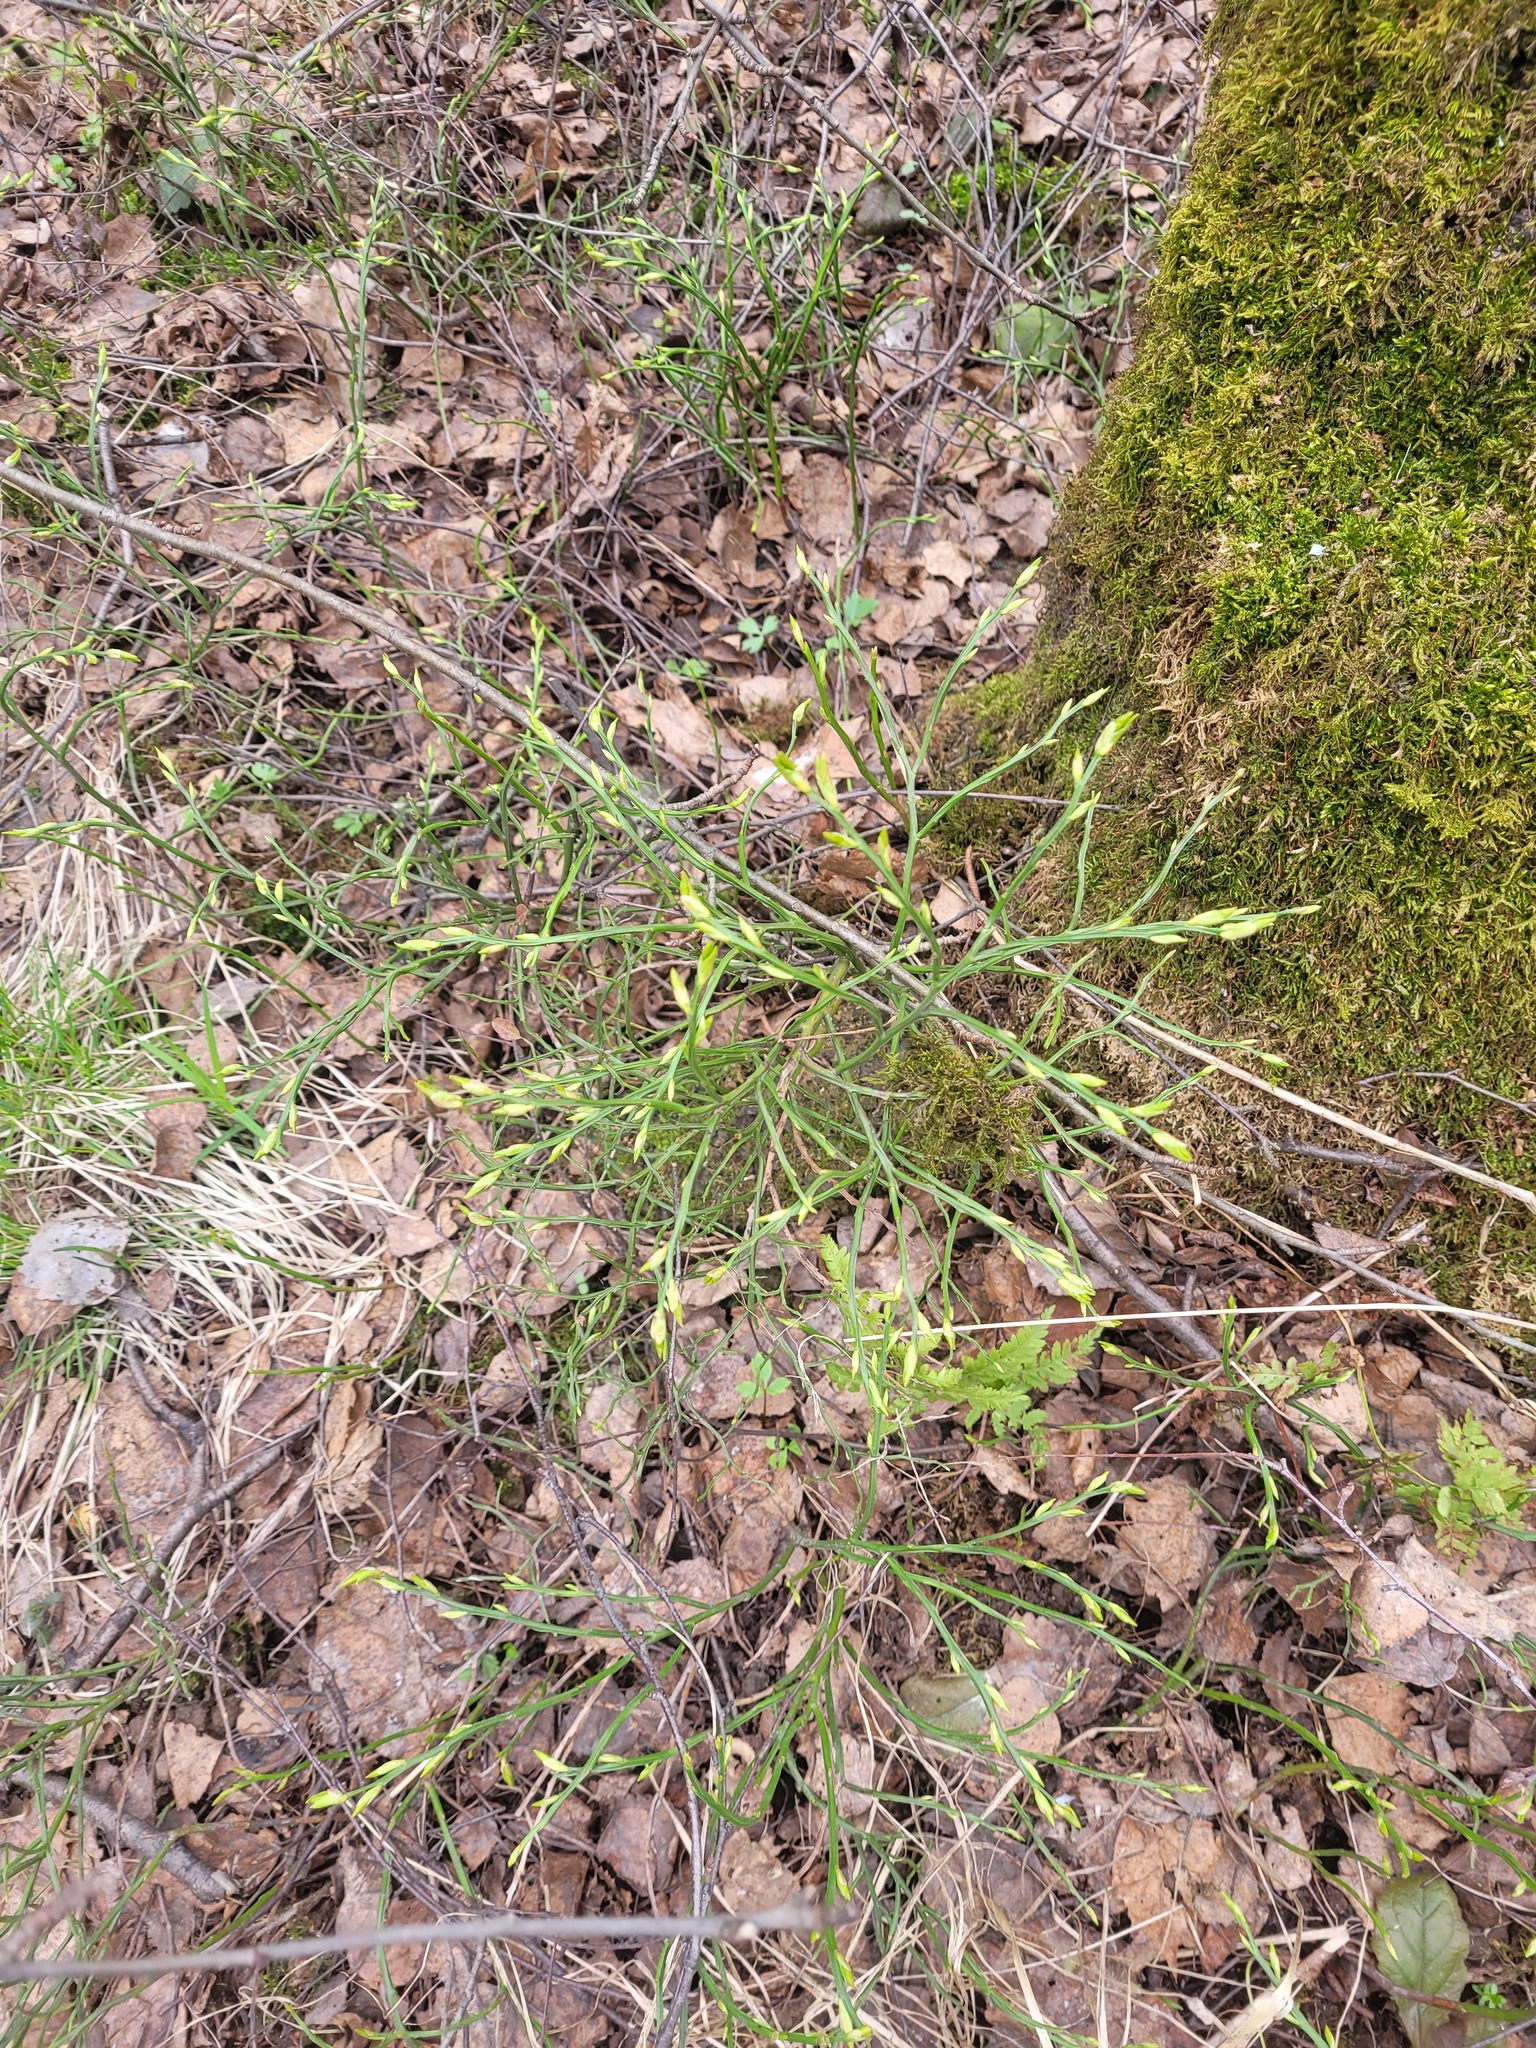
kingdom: Plantae
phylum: Tracheophyta
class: Magnoliopsida
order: Ericales
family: Ericaceae
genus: Vaccinium
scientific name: Vaccinium myrtillus
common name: Bilberry
